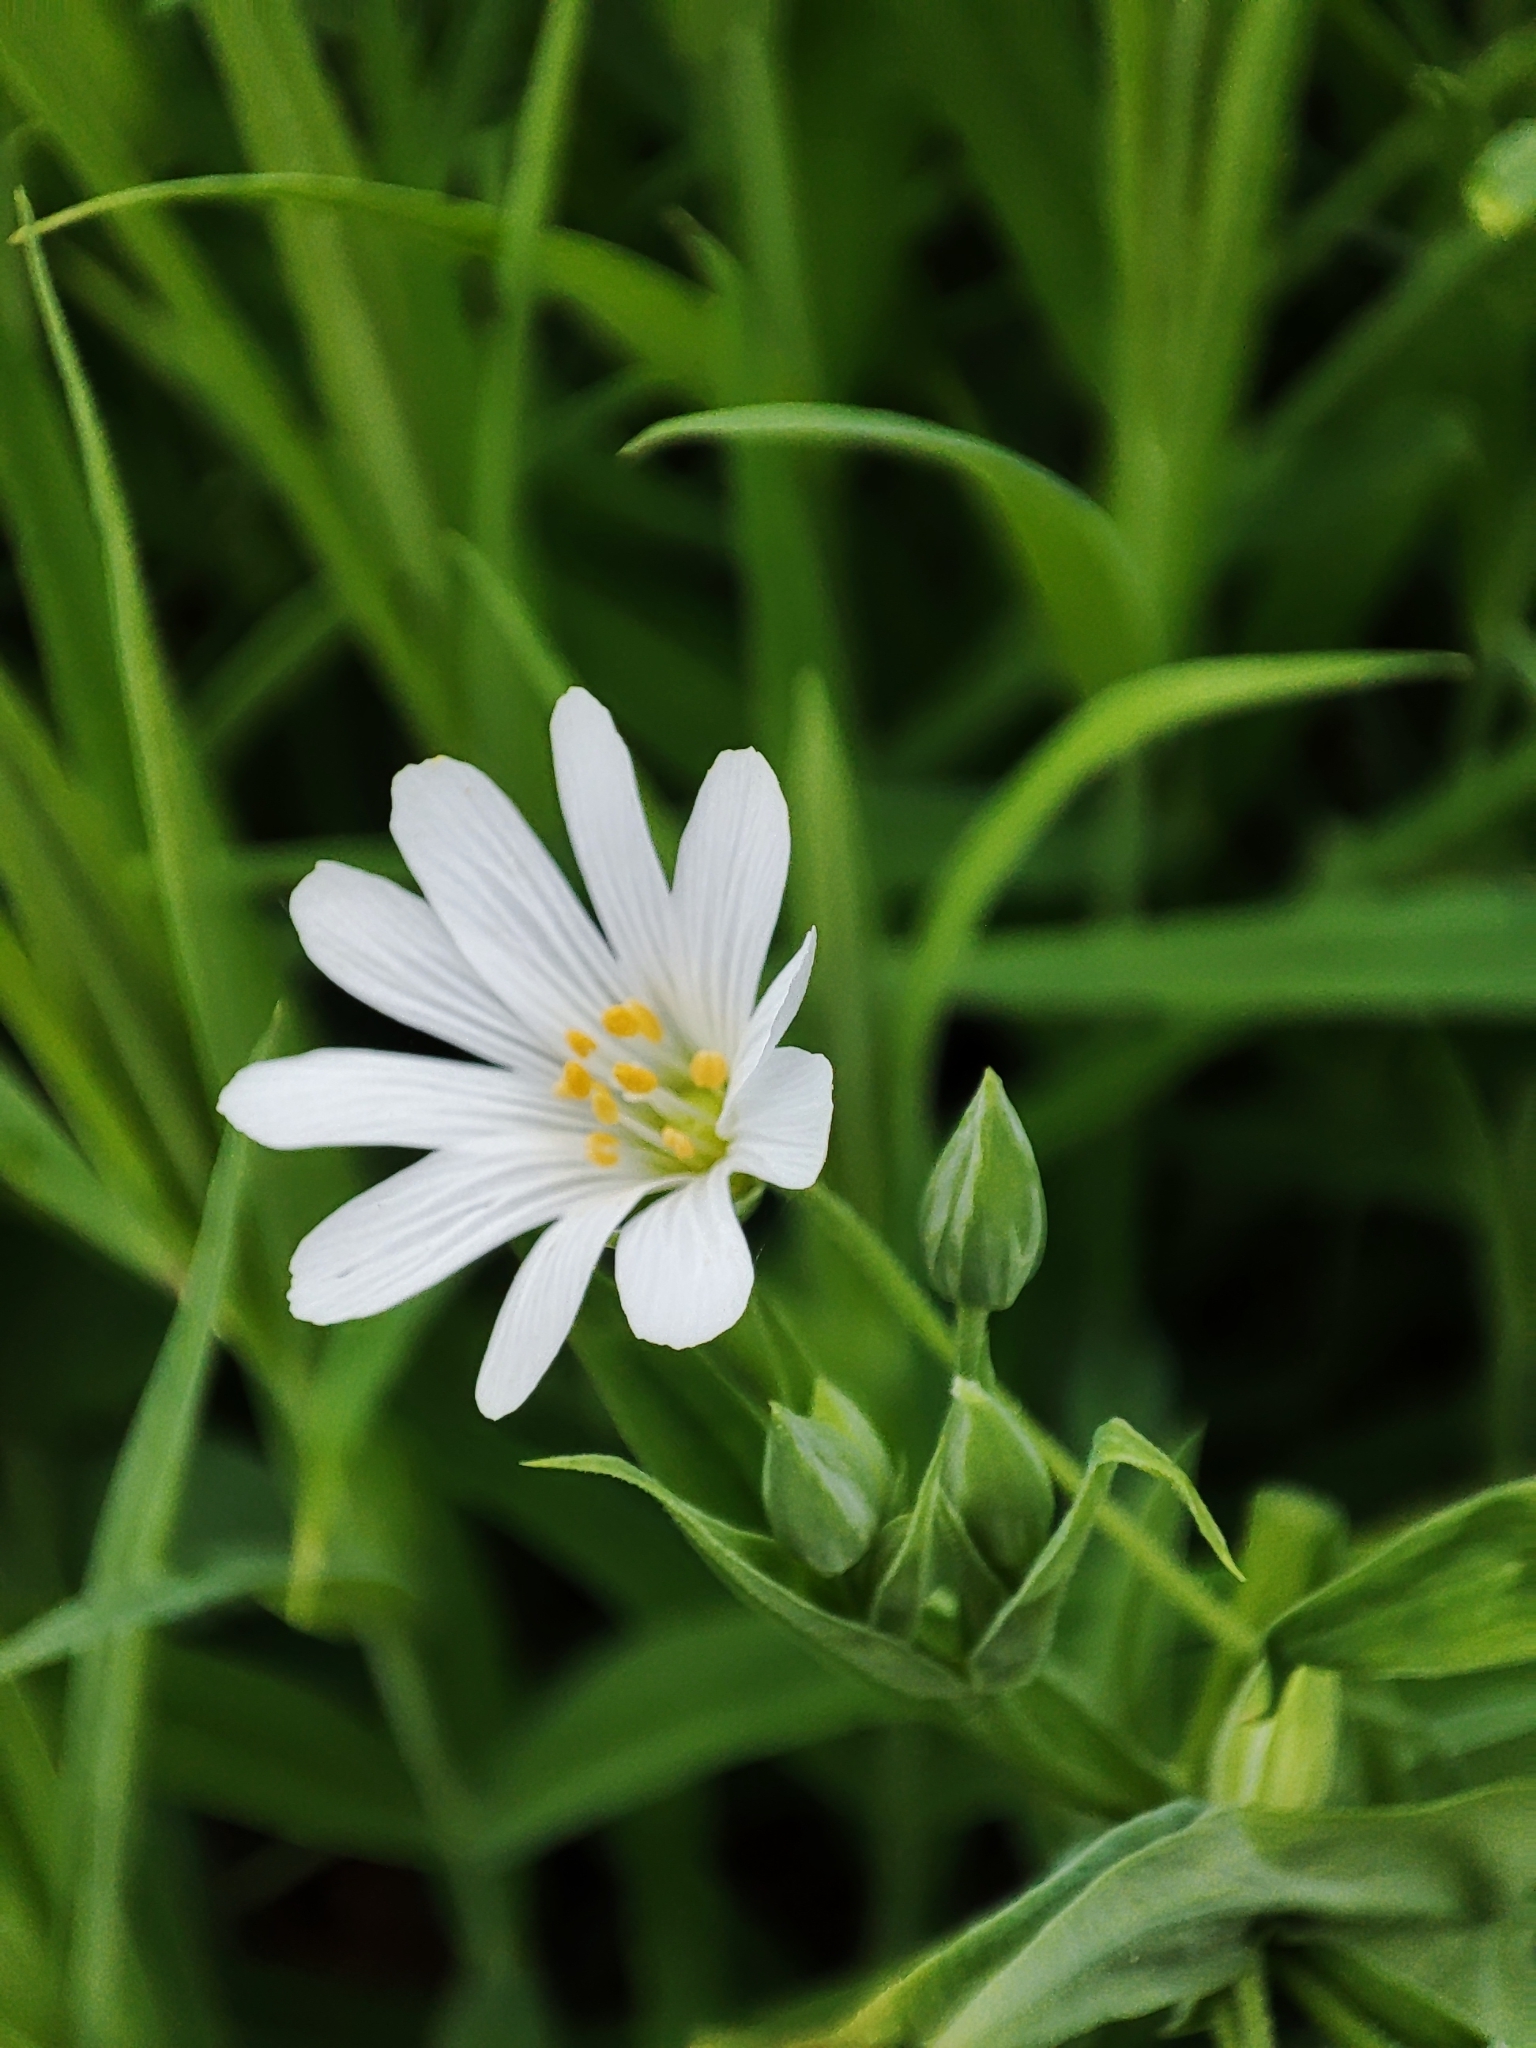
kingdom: Plantae
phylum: Tracheophyta
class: Magnoliopsida
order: Caryophyllales
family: Caryophyllaceae
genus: Rabelera
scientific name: Rabelera holostea
